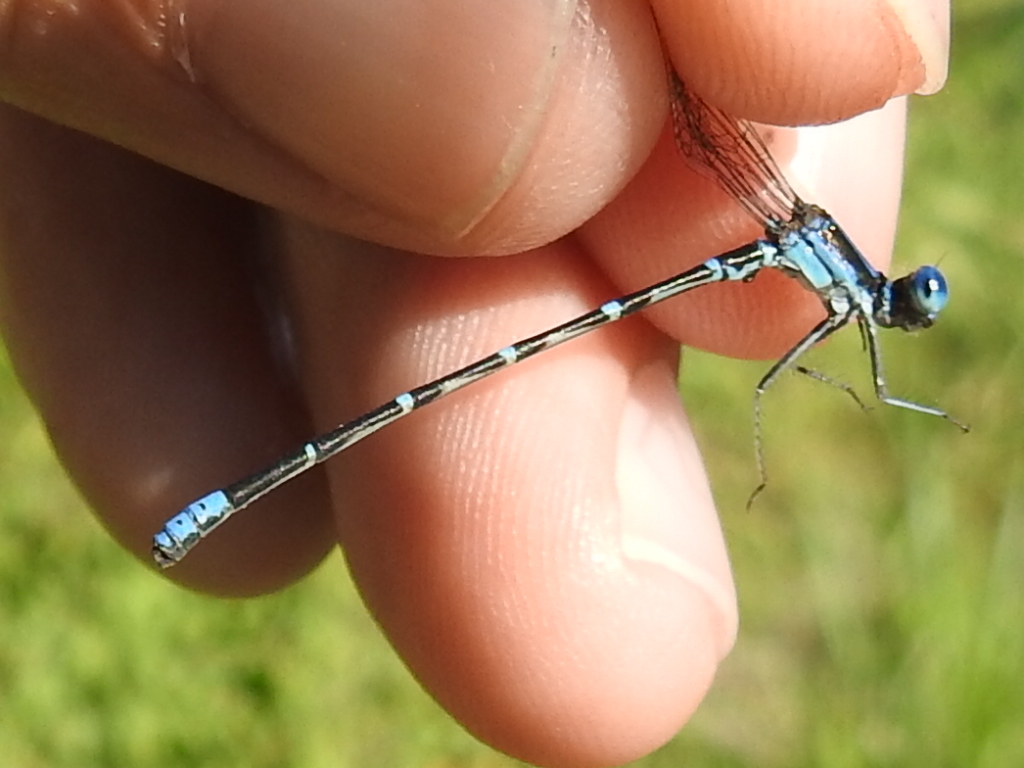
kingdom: Animalia
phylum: Arthropoda
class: Insecta
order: Odonata
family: Coenagrionidae
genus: Argia
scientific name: Argia sedula
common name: Blue-ringed dancer
